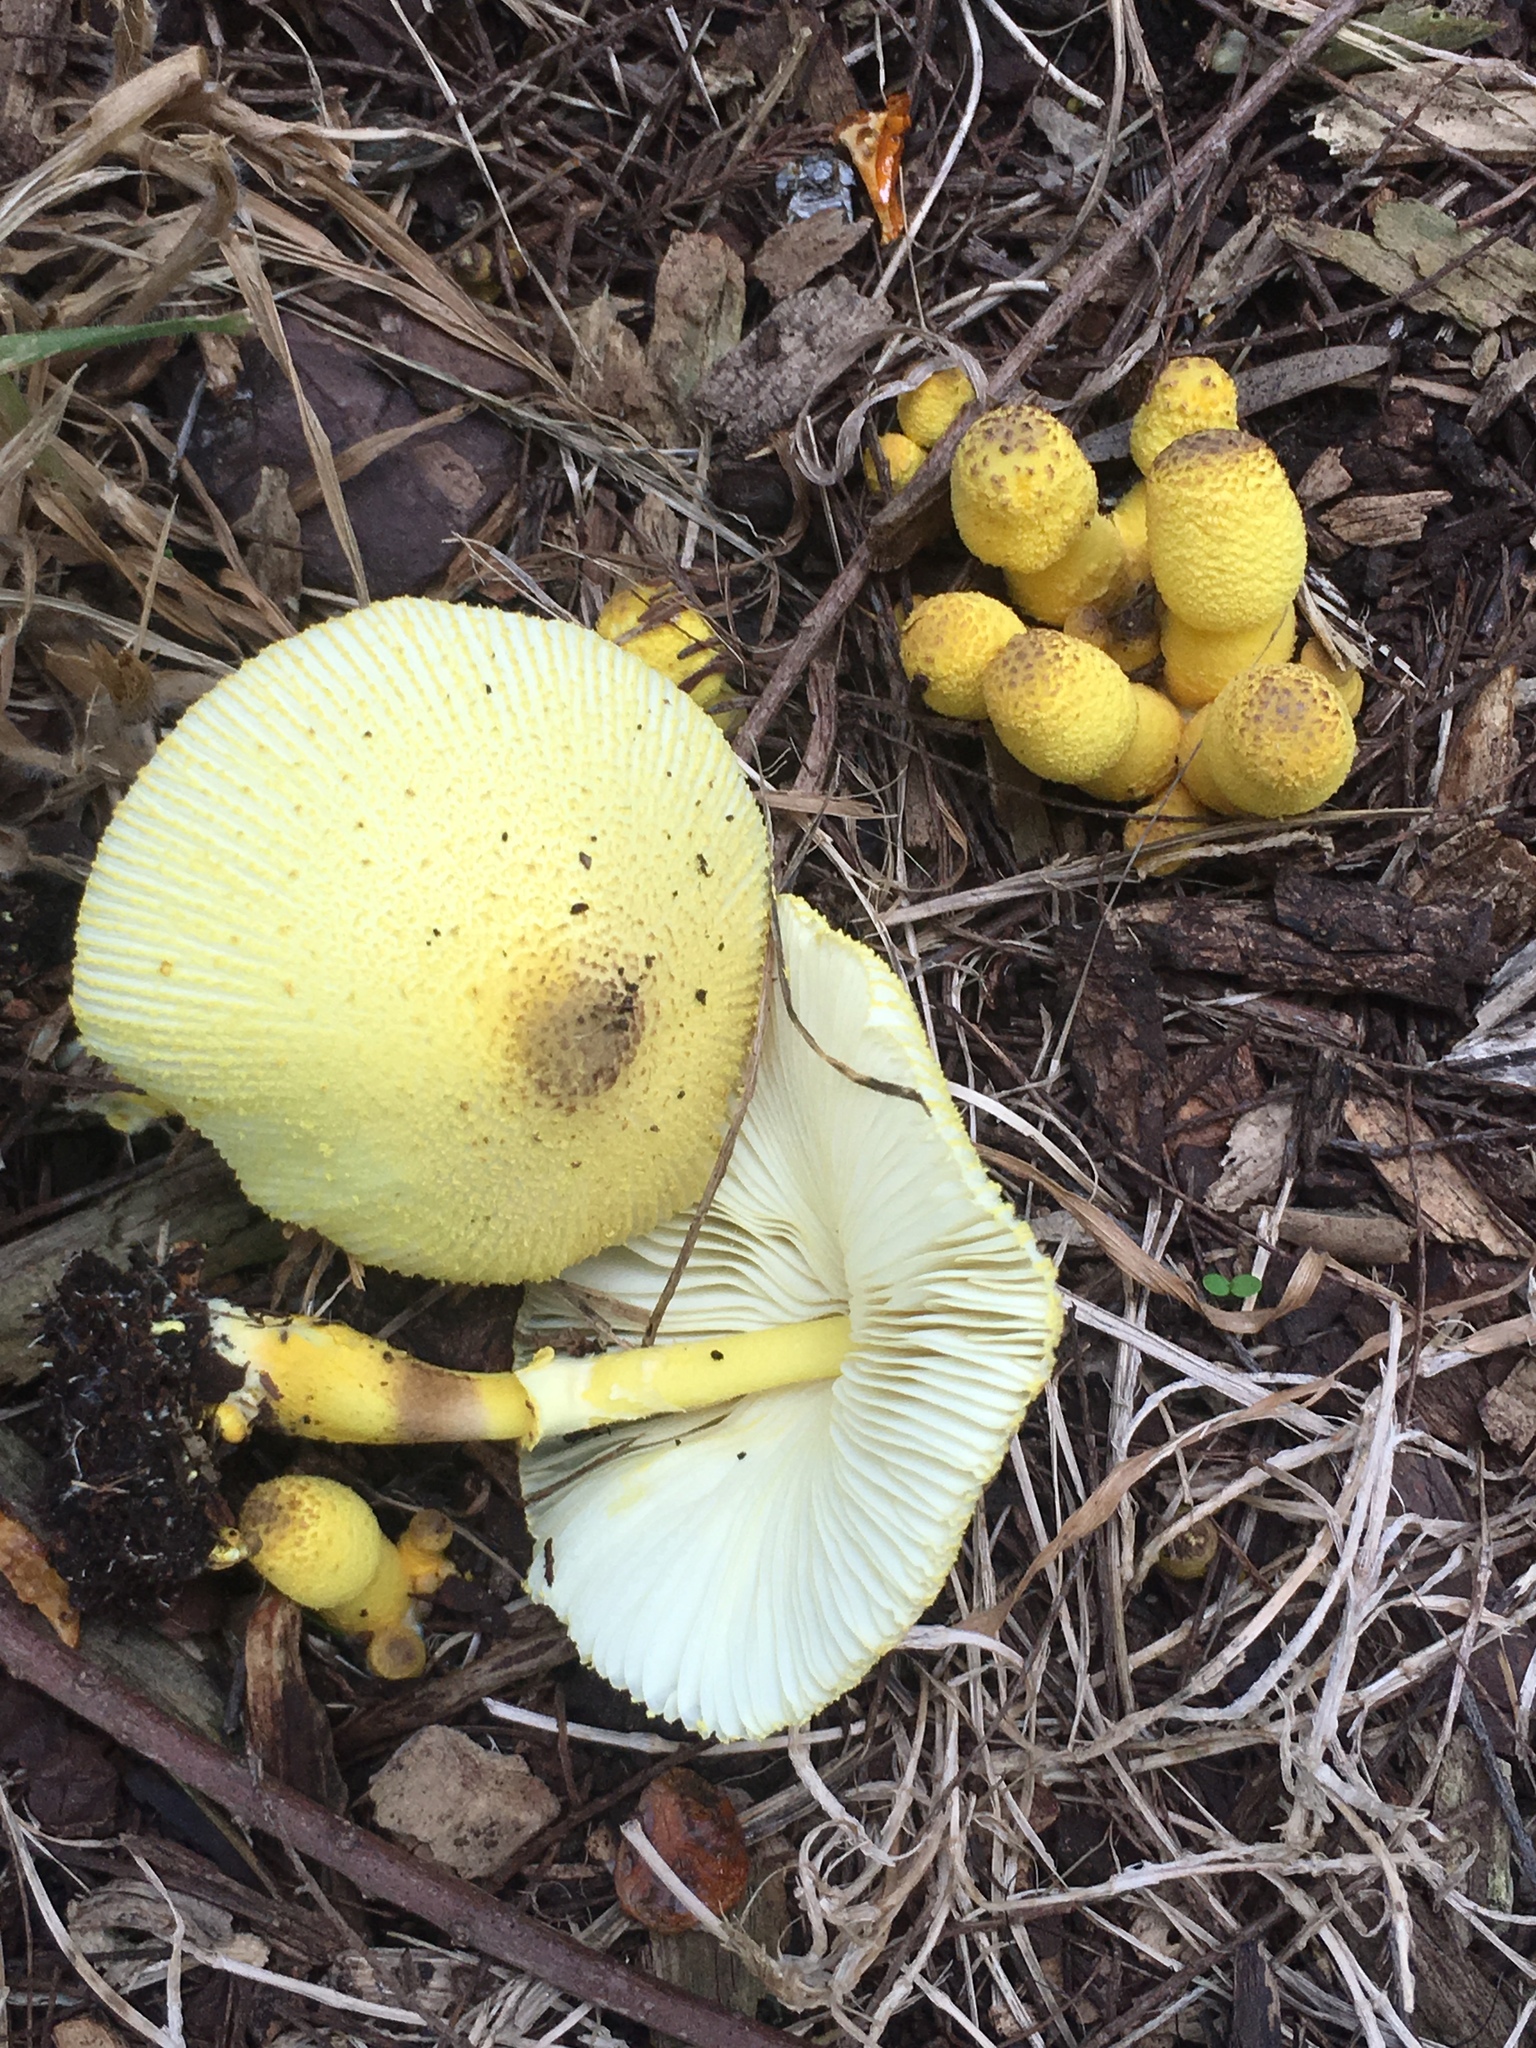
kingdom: Fungi
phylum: Basidiomycota
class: Agaricomycetes
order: Agaricales
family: Agaricaceae
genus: Leucocoprinus
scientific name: Leucocoprinus birnbaumii
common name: Plantpot dapperling
